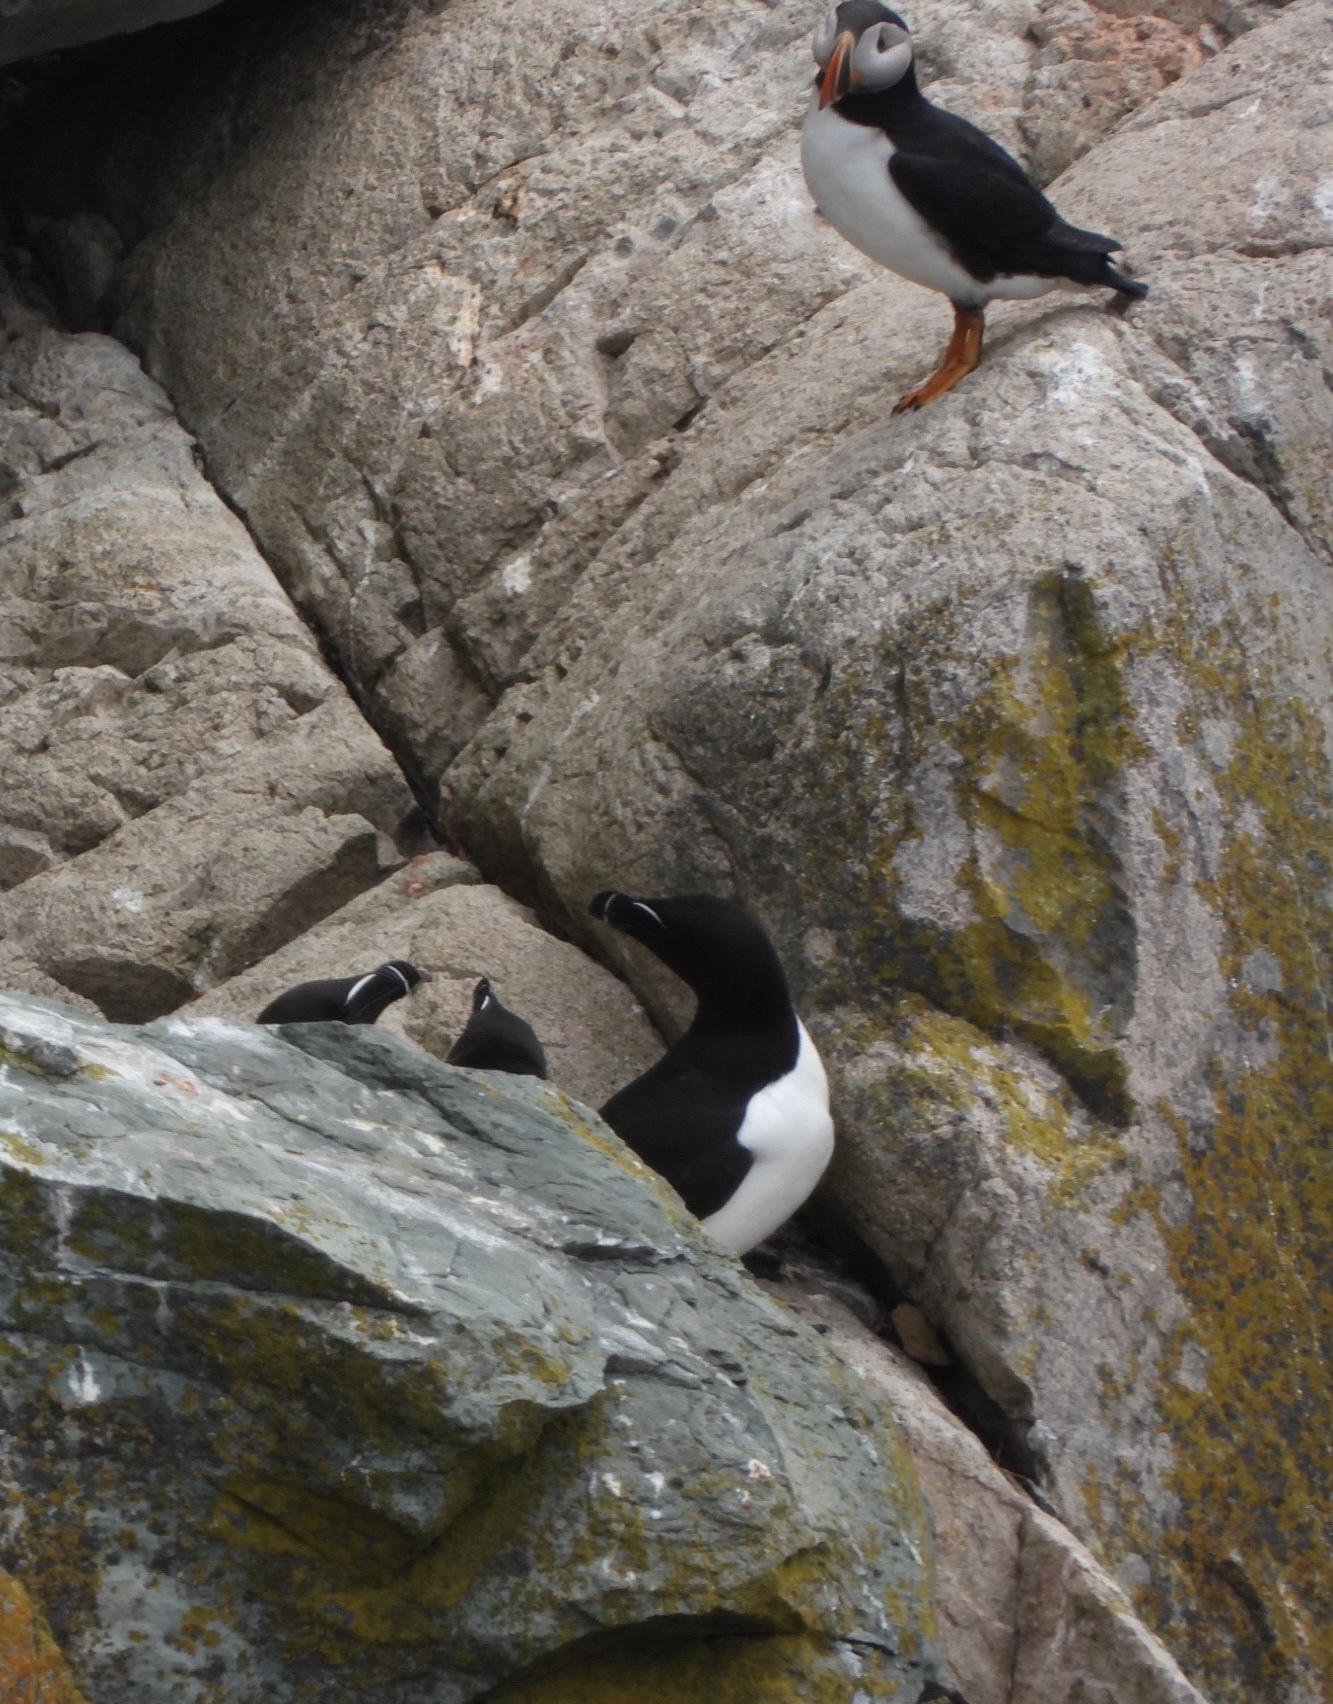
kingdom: Animalia
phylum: Chordata
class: Aves
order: Charadriiformes
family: Alcidae
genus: Fratercula
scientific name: Fratercula arctica
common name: Atlantic puffin
